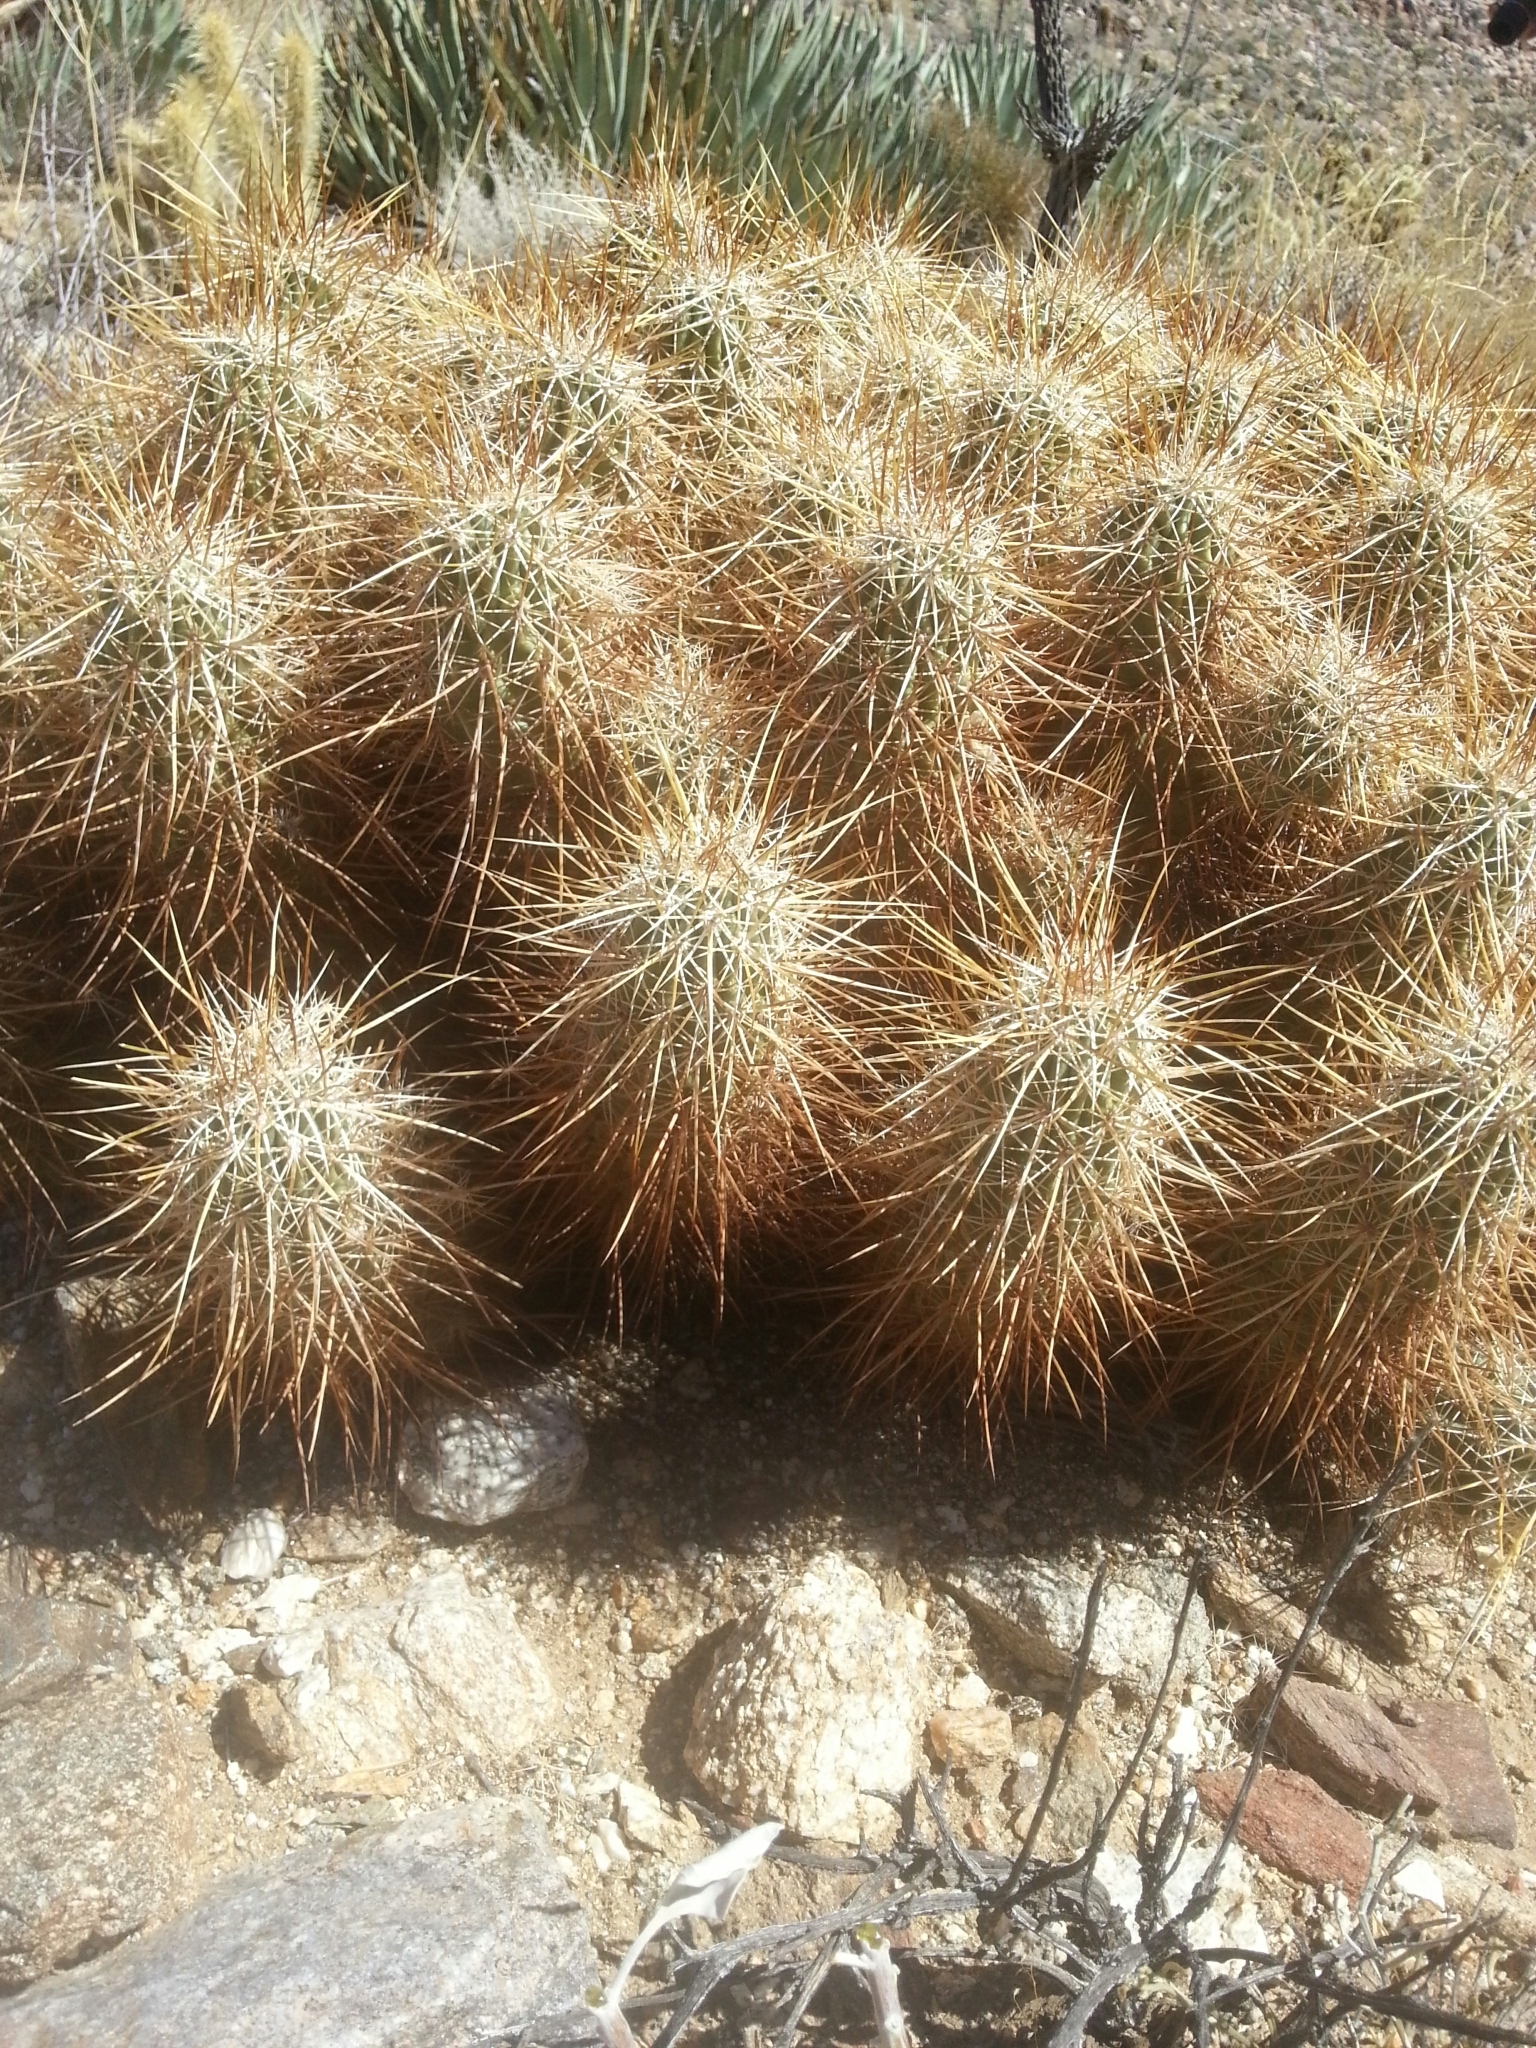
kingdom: Plantae
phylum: Tracheophyta
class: Magnoliopsida
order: Caryophyllales
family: Cactaceae
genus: Echinocereus
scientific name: Echinocereus engelmannii
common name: Engelmann's hedgehog cactus
